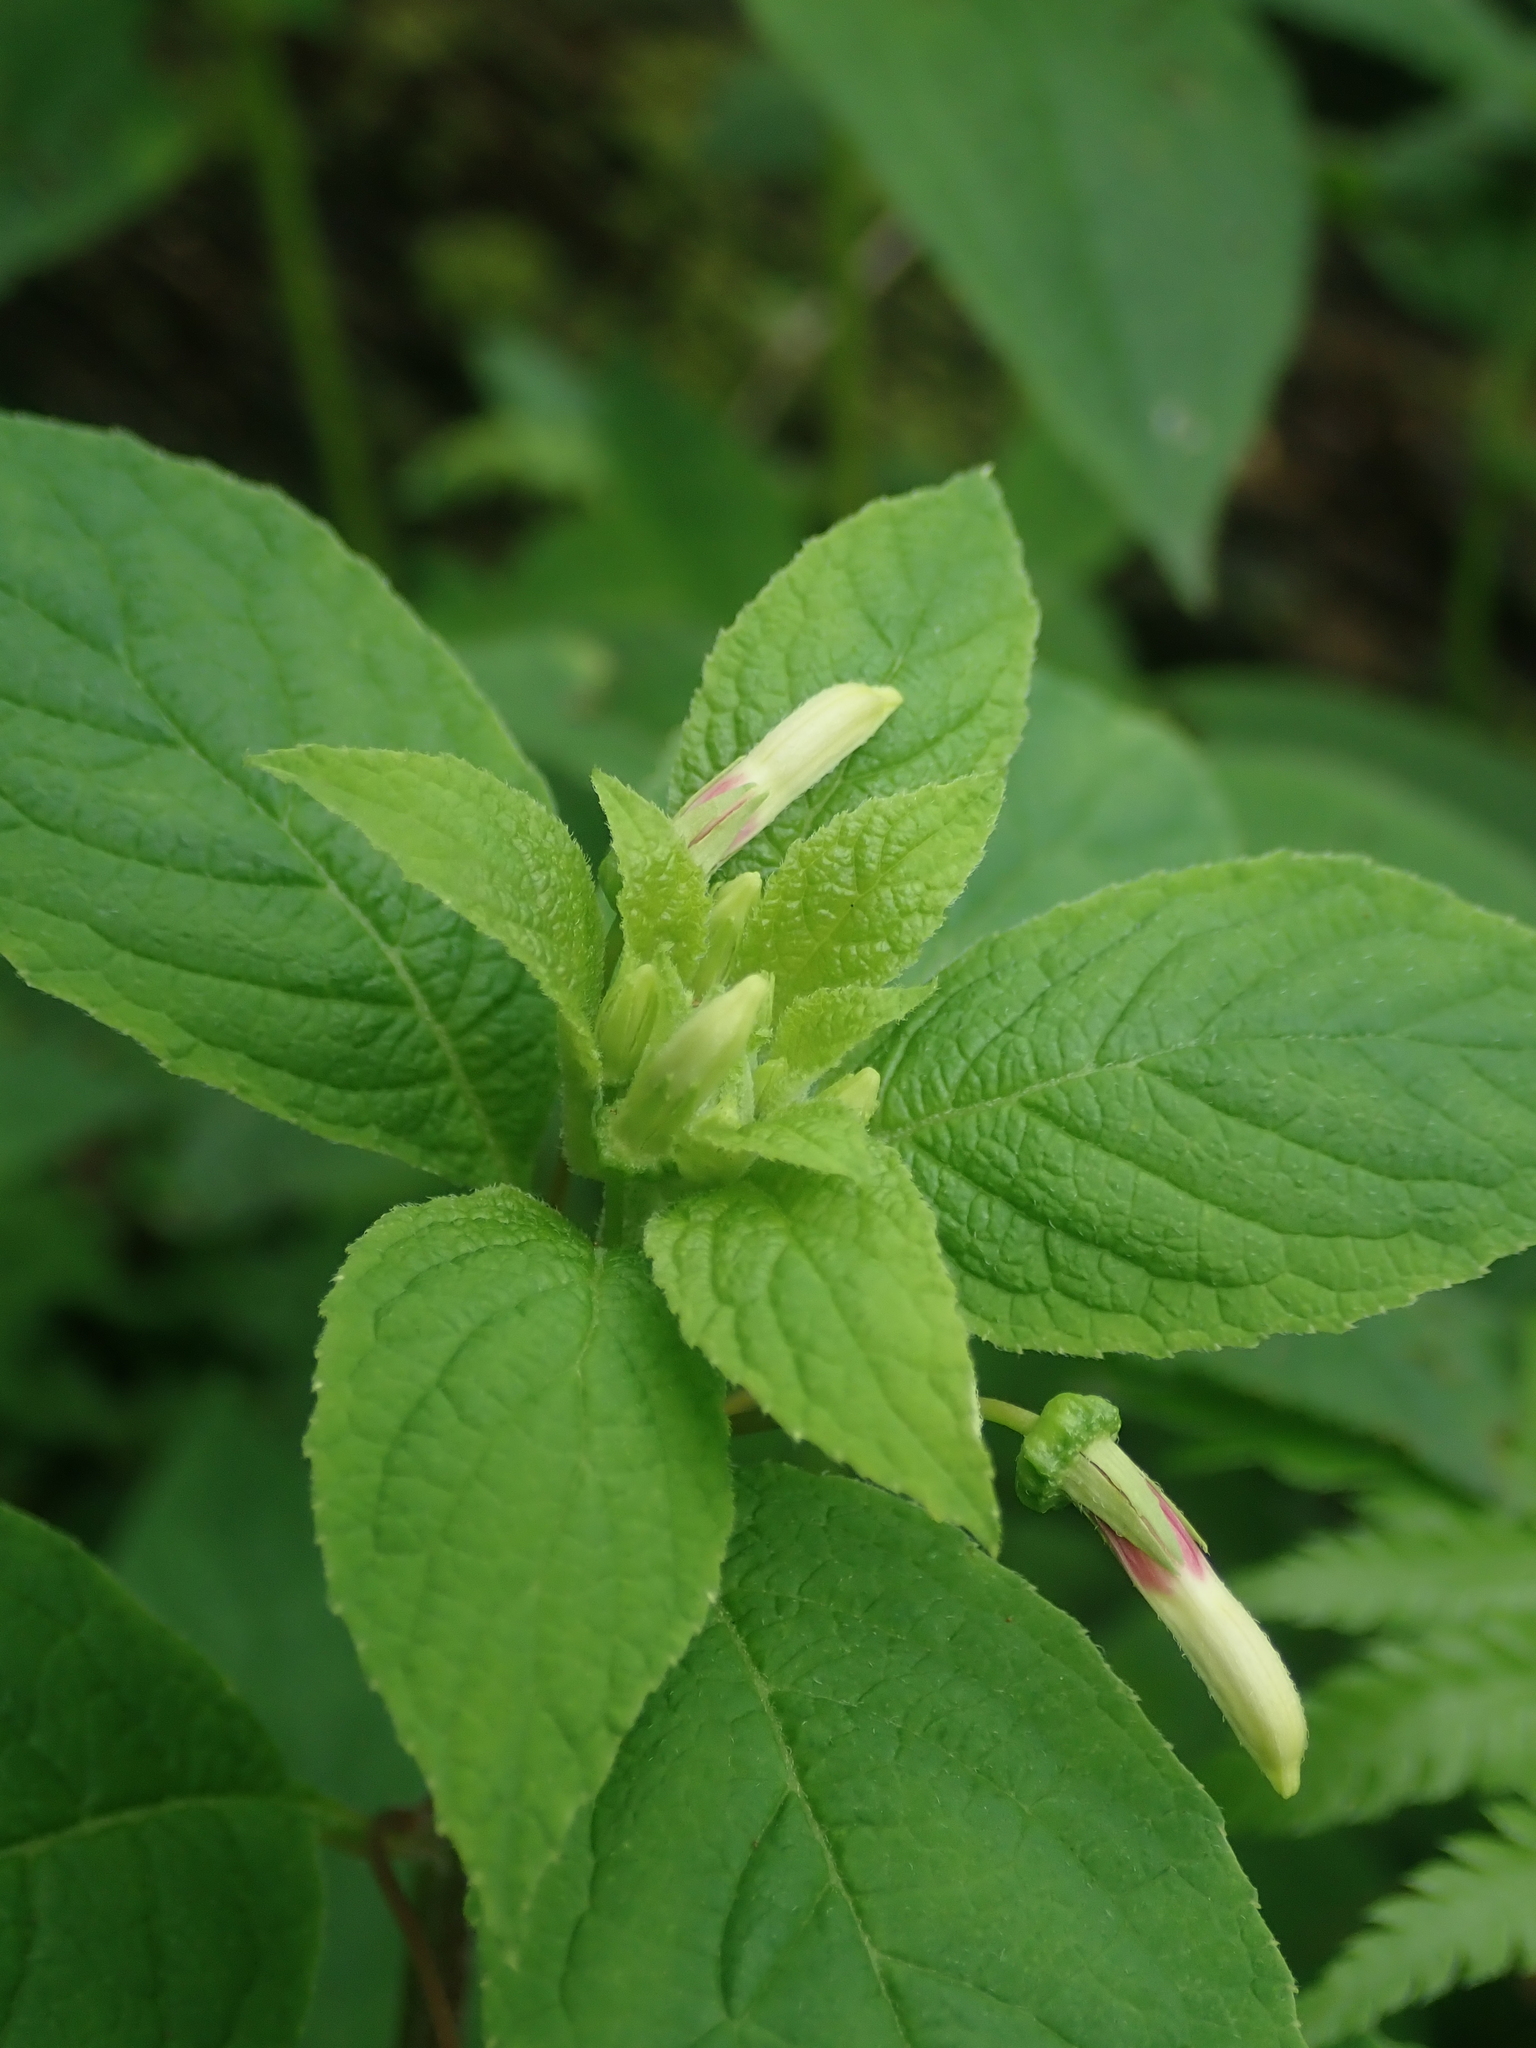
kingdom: Plantae
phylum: Tracheophyta
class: Magnoliopsida
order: Asterales
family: Campanulaceae
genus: Siphocampylus
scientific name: Siphocampylus argentinus
